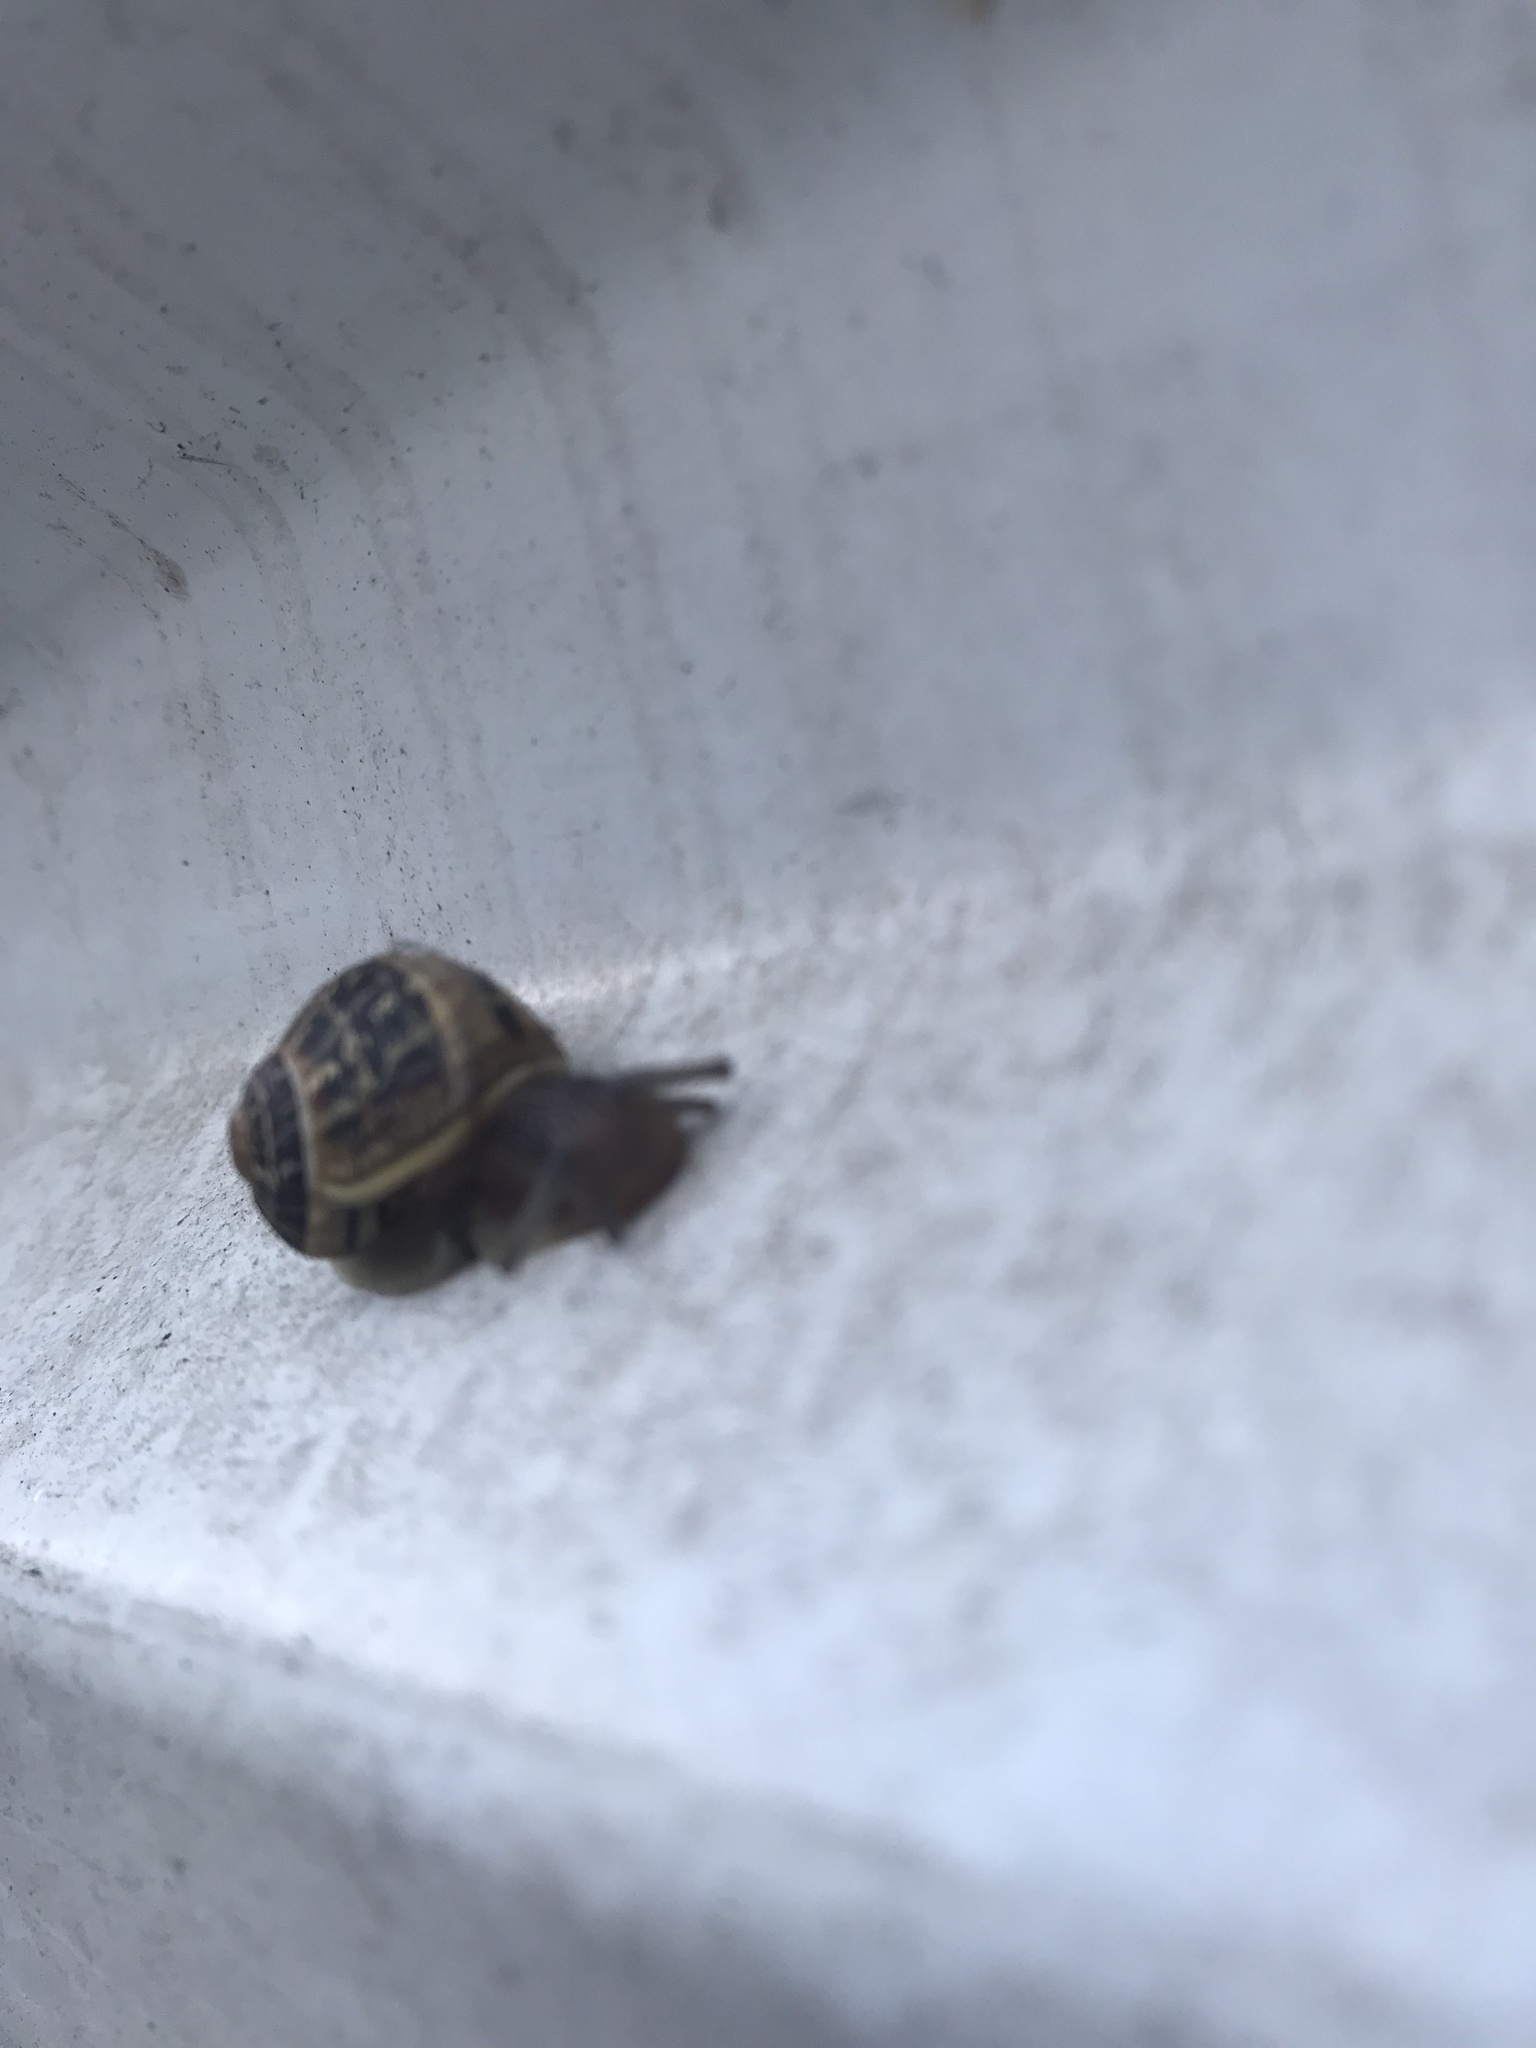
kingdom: Animalia
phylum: Mollusca
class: Gastropoda
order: Stylommatophora
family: Helicidae
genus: Cornu
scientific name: Cornu aspersum
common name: Brown garden snail
